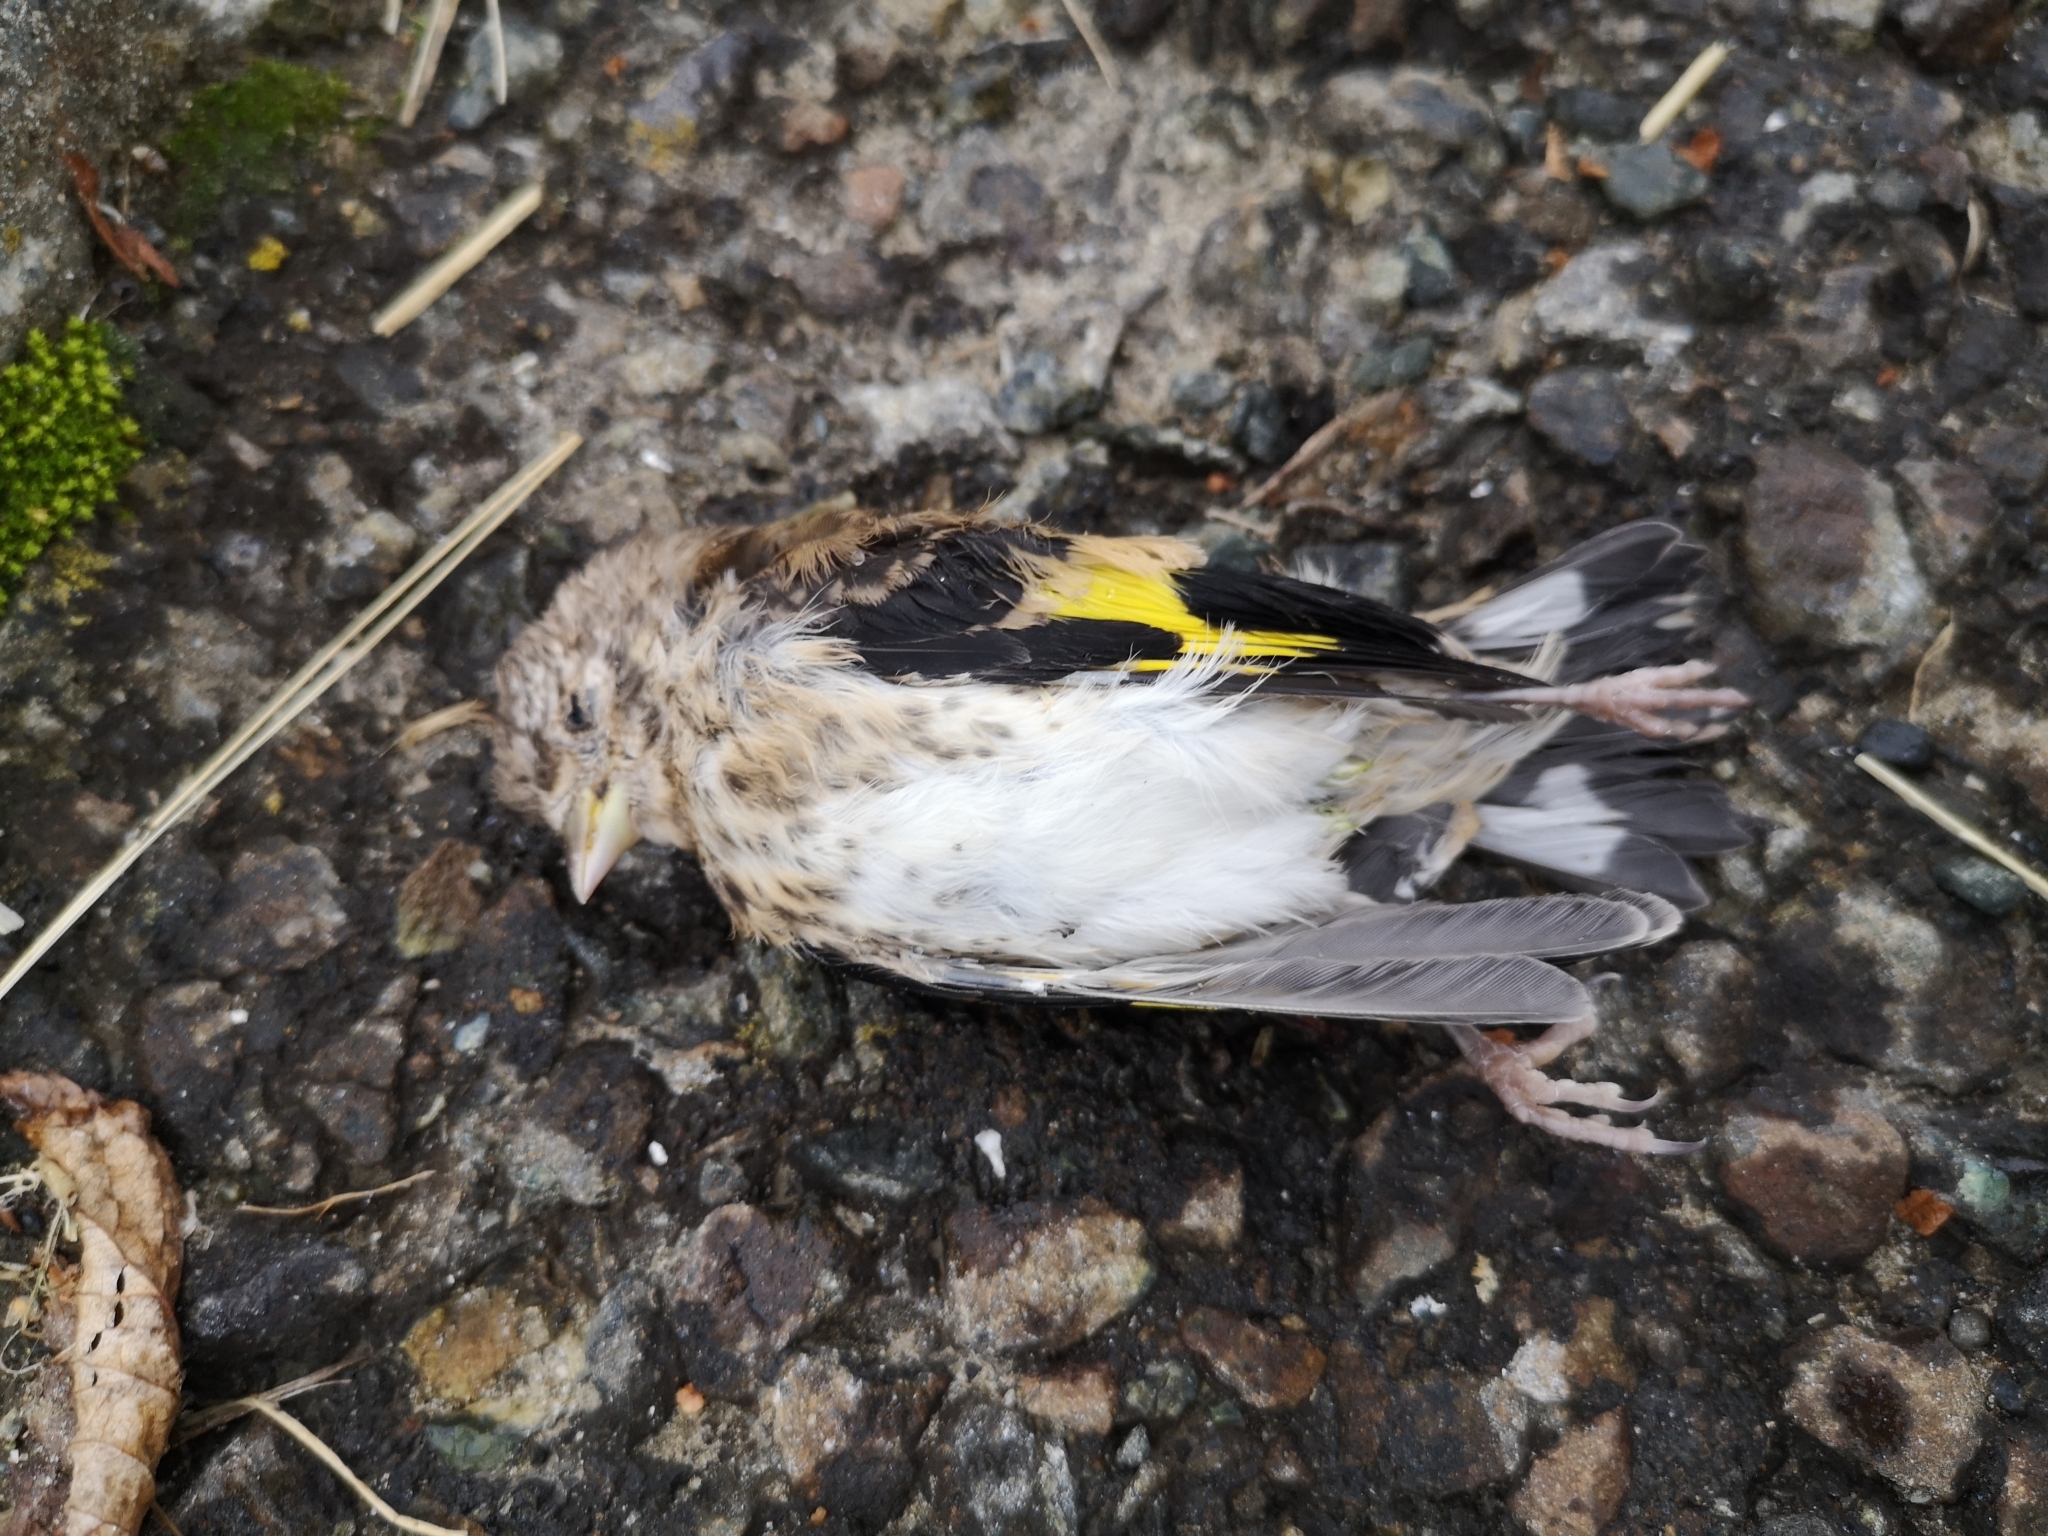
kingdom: Animalia
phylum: Chordata
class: Aves
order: Passeriformes
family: Fringillidae
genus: Carduelis
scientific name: Carduelis carduelis
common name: European goldfinch
